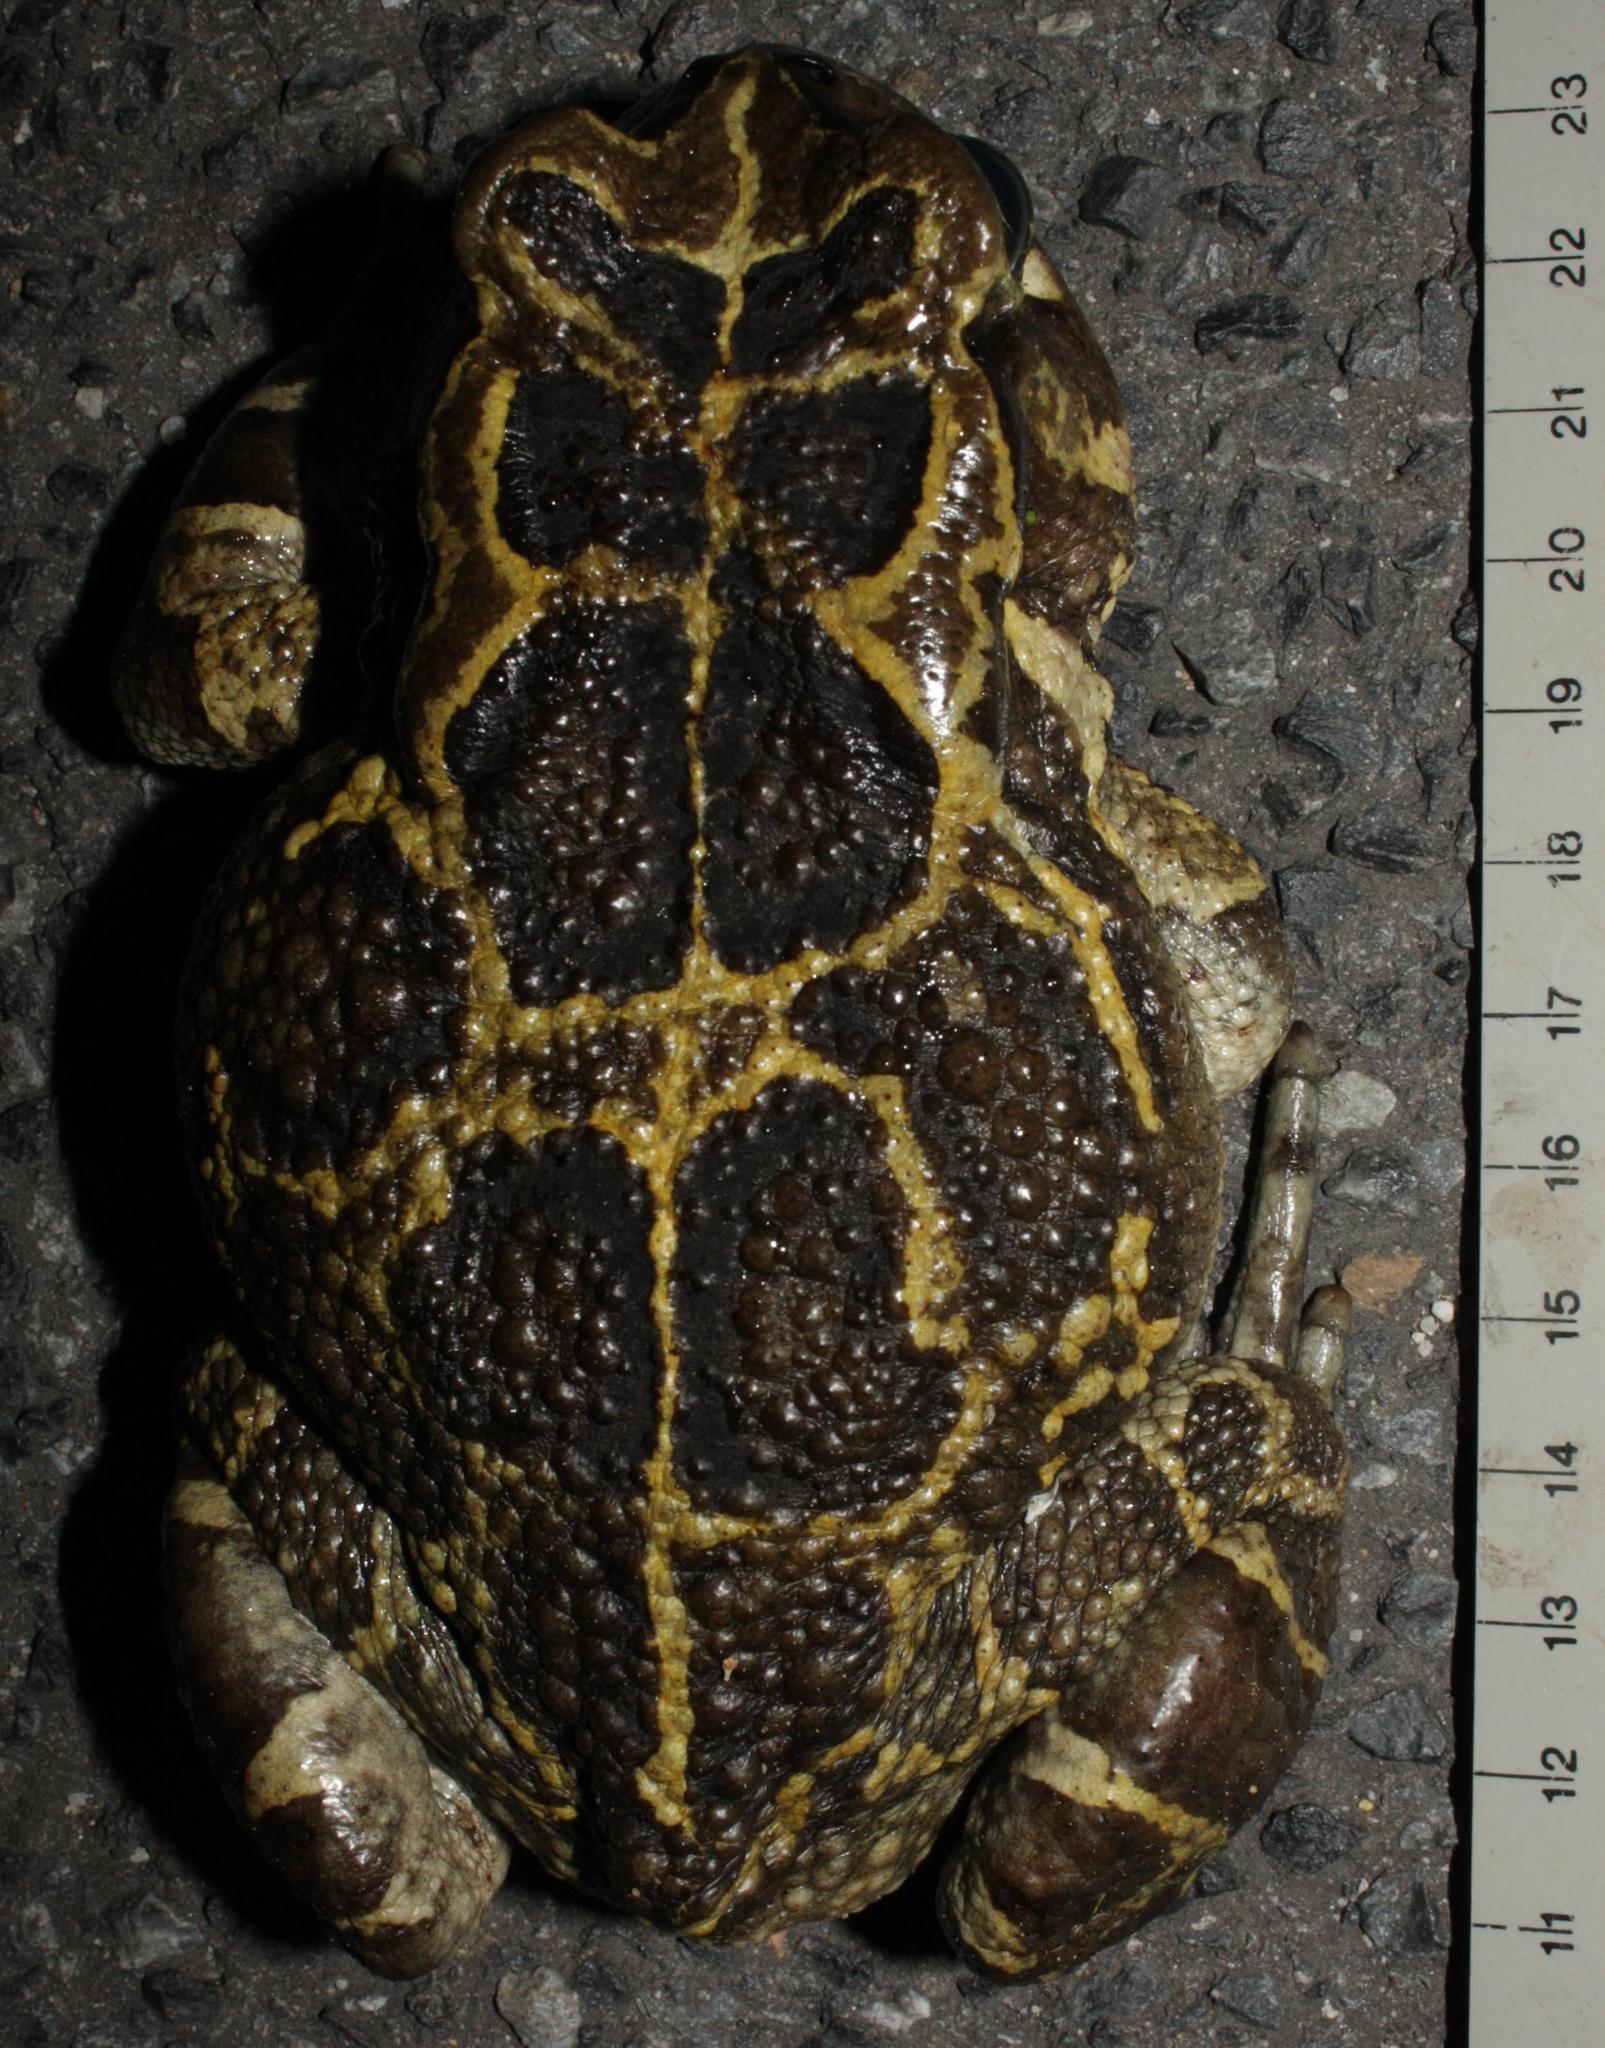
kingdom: Animalia
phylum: Chordata
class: Amphibia
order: Anura
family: Bufonidae
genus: Sclerophrys
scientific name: Sclerophrys pantherina
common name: Panther toad
